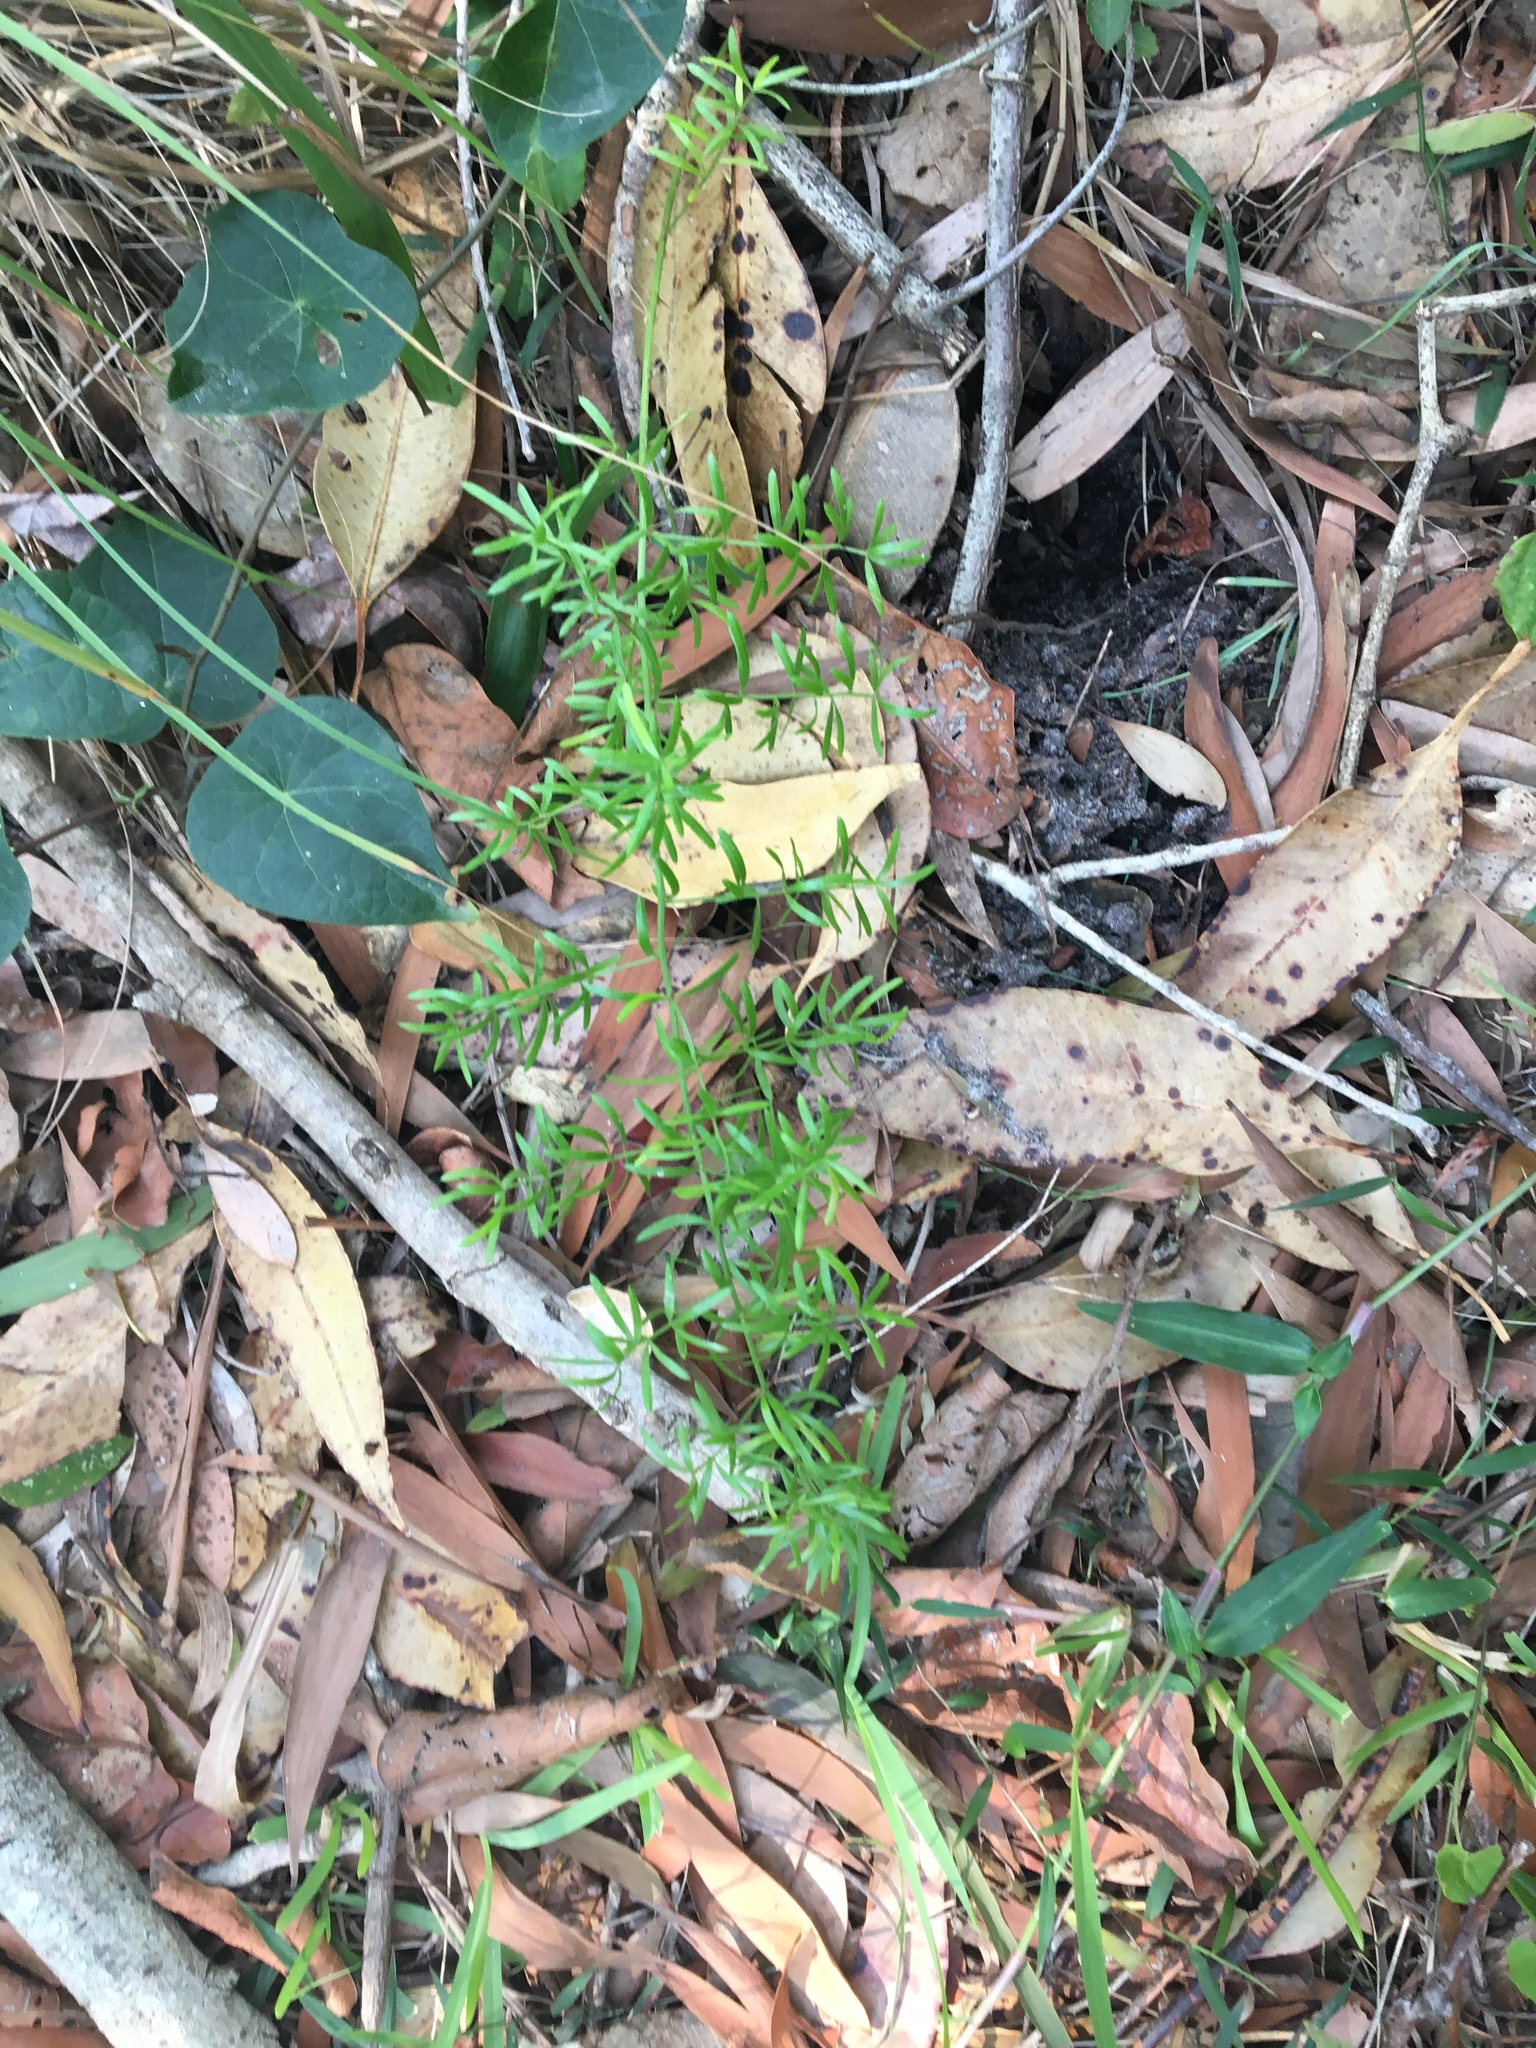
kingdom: Plantae
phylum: Tracheophyta
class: Liliopsida
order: Asparagales
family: Asparagaceae
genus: Asparagus
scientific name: Asparagus aethiopicus
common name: Sprenger's asparagus fern
